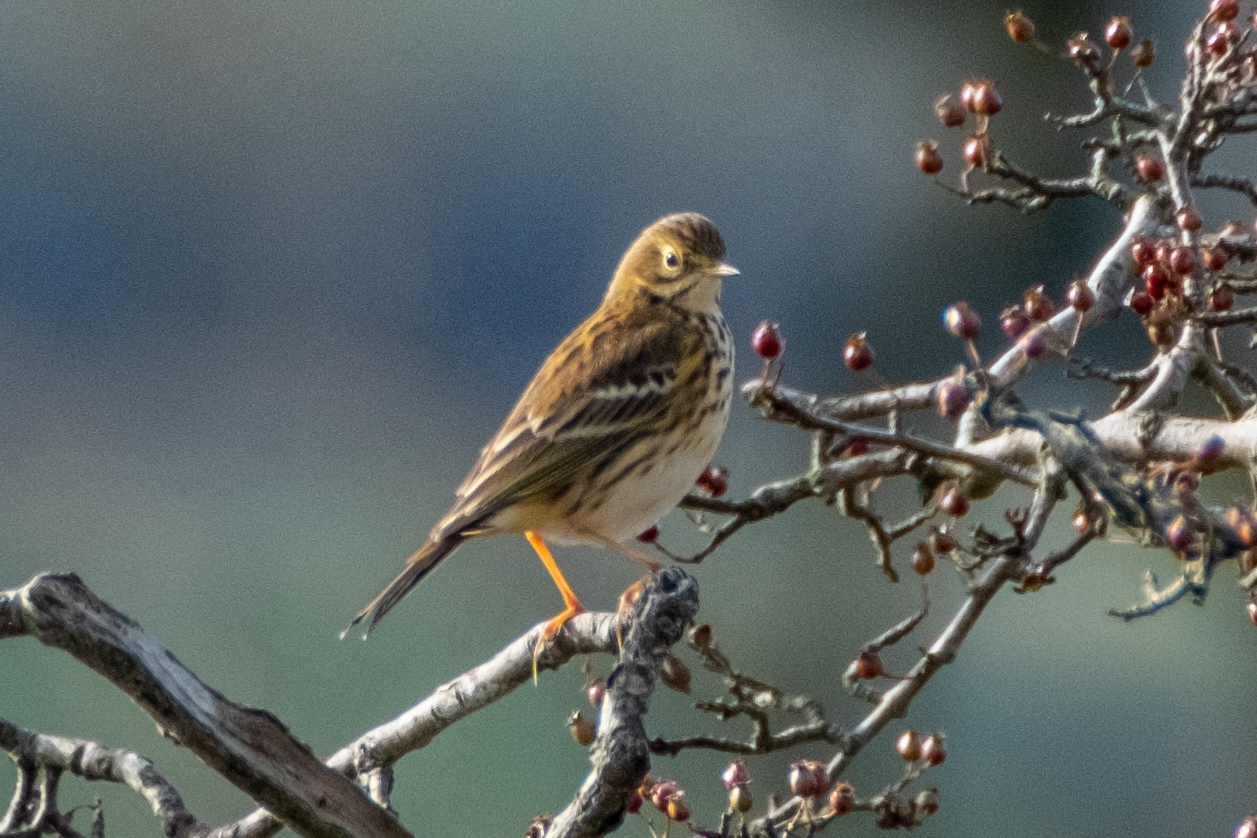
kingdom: Animalia
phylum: Chordata
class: Aves
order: Passeriformes
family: Motacillidae
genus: Anthus
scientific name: Anthus pratensis
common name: Meadow pipit
